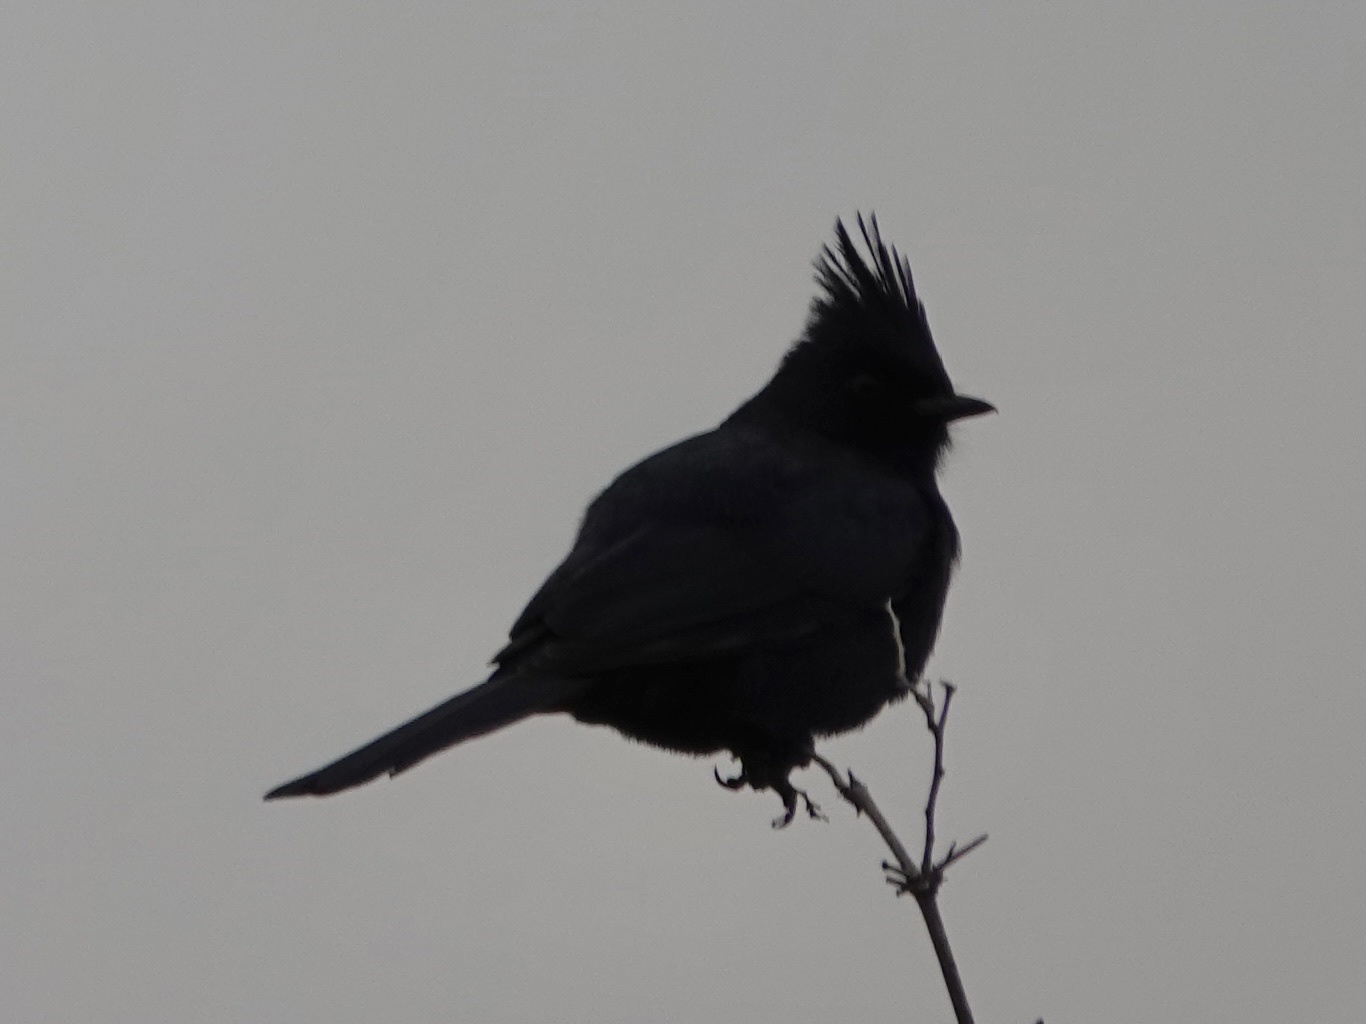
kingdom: Animalia
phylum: Chordata
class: Aves
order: Passeriformes
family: Ptilogonatidae
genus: Phainopepla
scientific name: Phainopepla nitens
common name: Phainopepla
